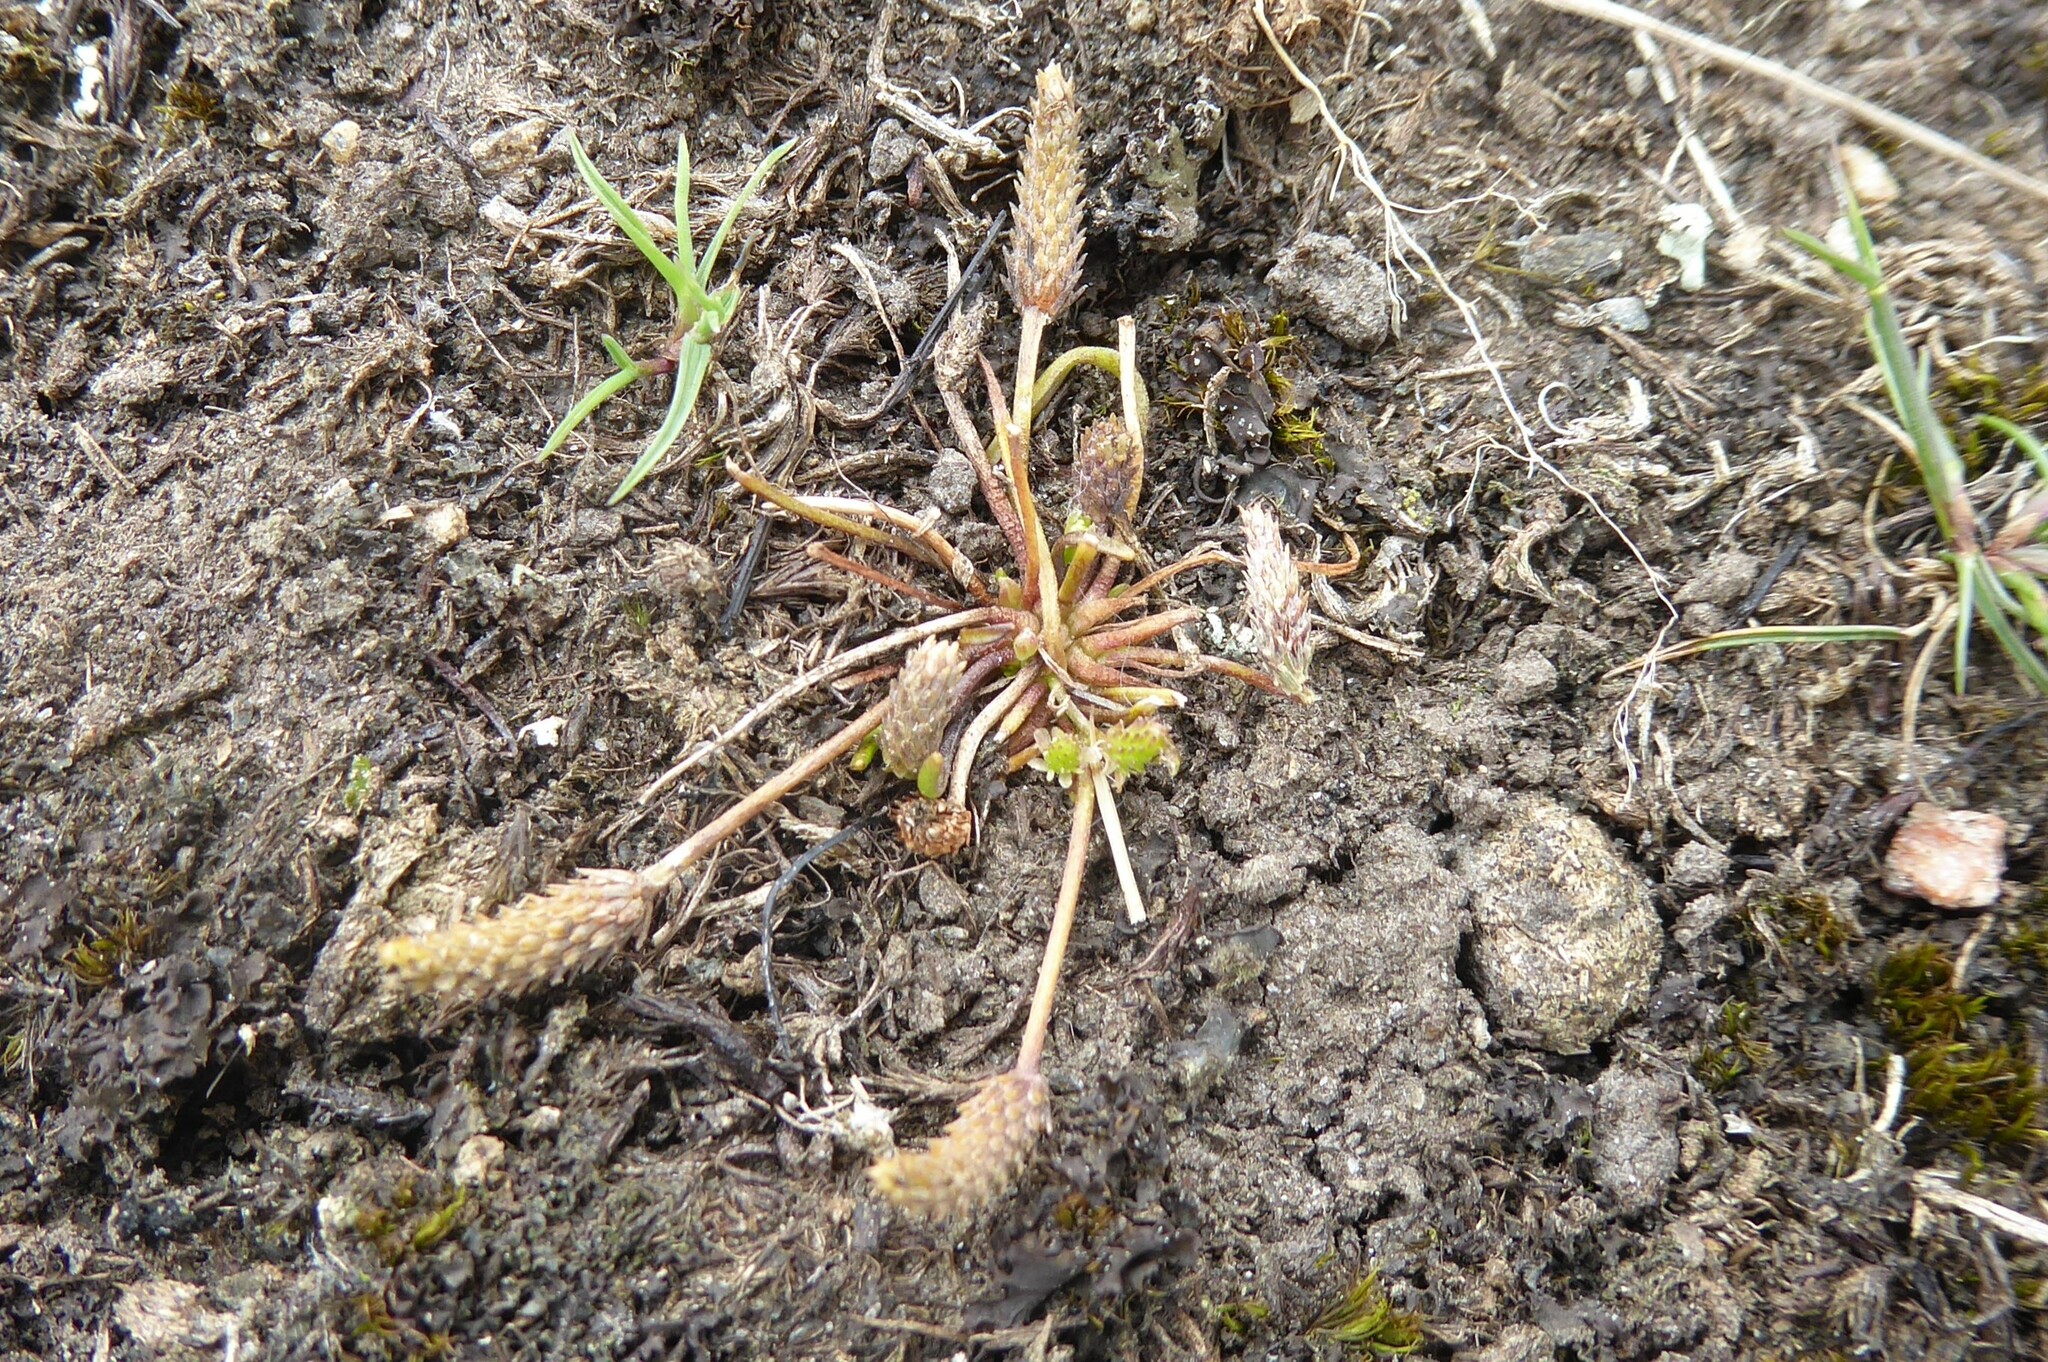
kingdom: Plantae
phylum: Tracheophyta
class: Magnoliopsida
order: Ranunculales
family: Ranunculaceae
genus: Myosurus
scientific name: Myosurus minimus
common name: Mousetail
